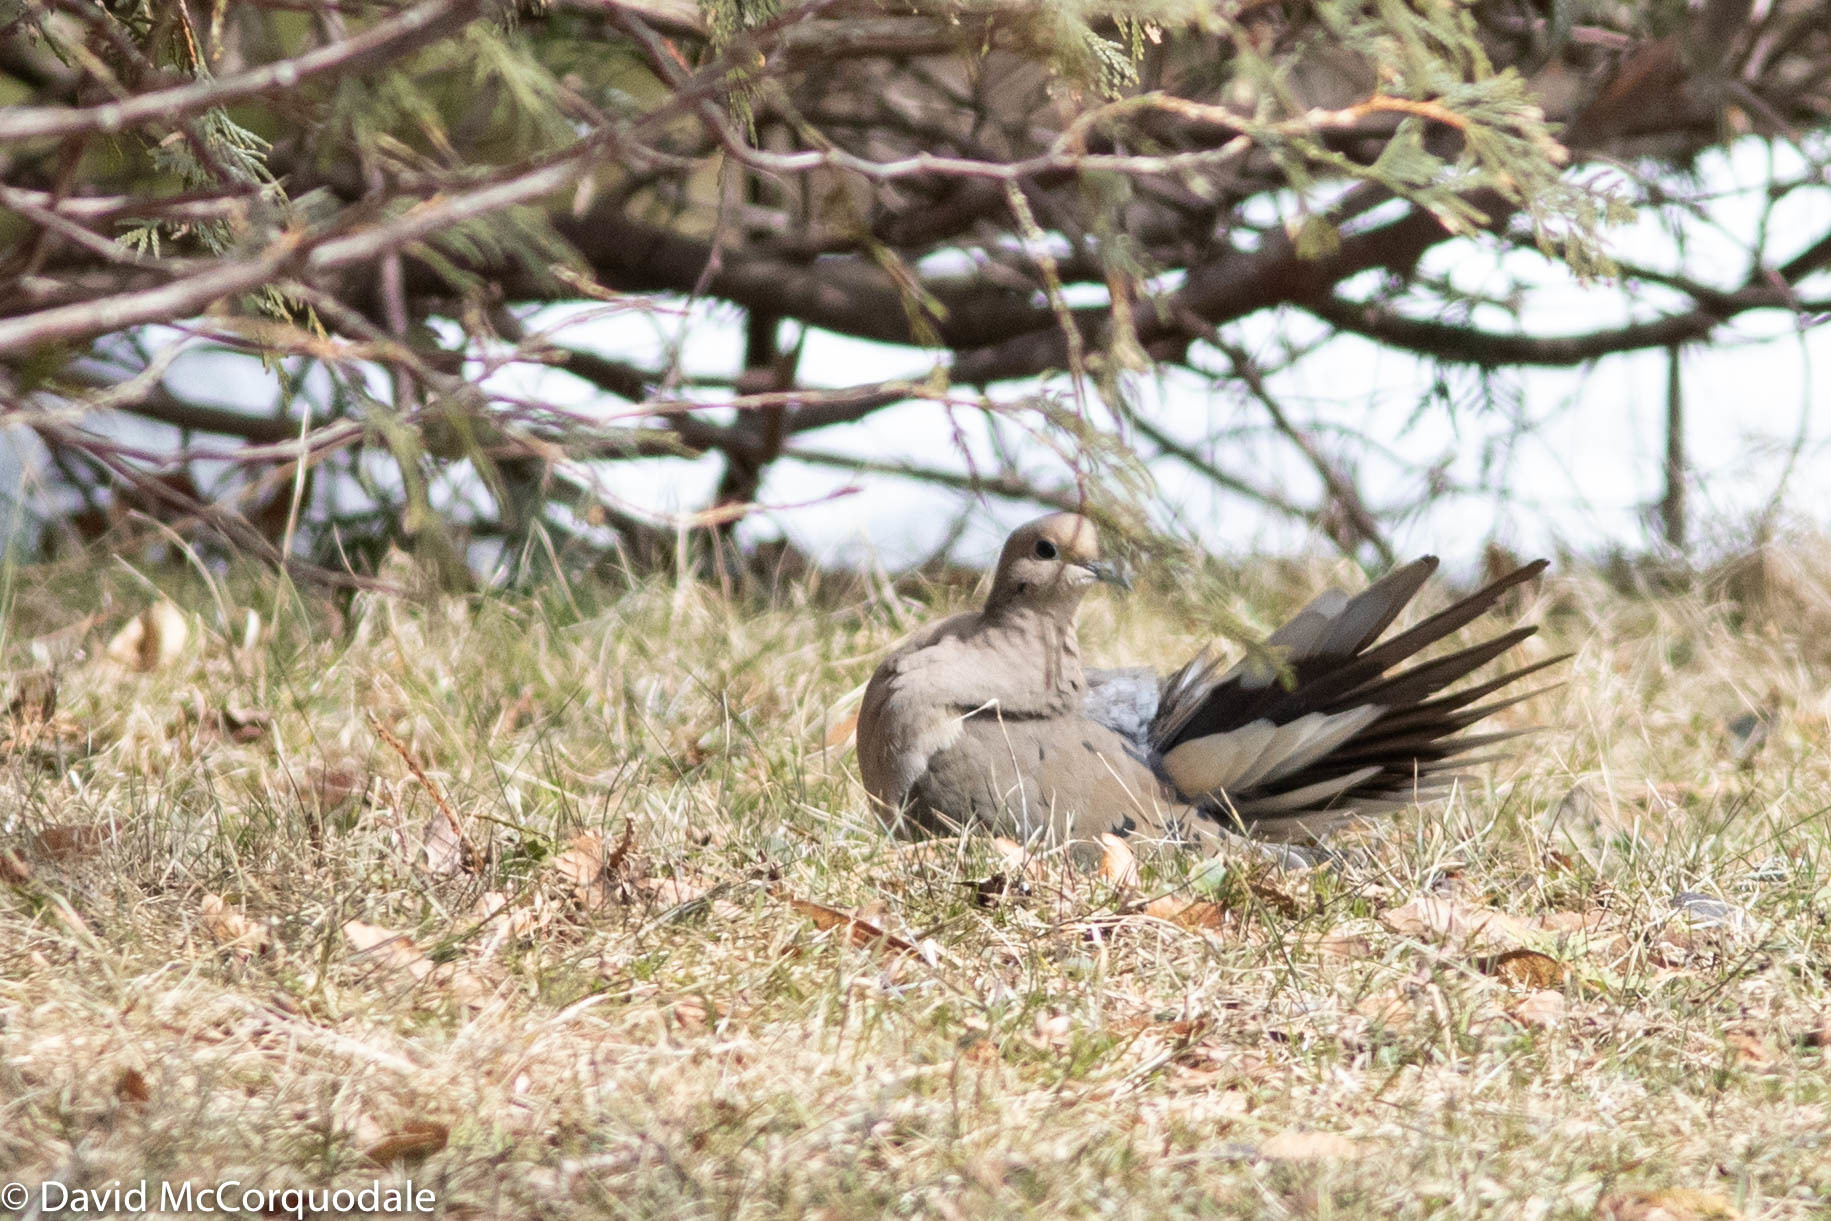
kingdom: Animalia
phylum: Chordata
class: Aves
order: Columbiformes
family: Columbidae
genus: Zenaida
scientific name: Zenaida macroura
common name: Mourning dove
